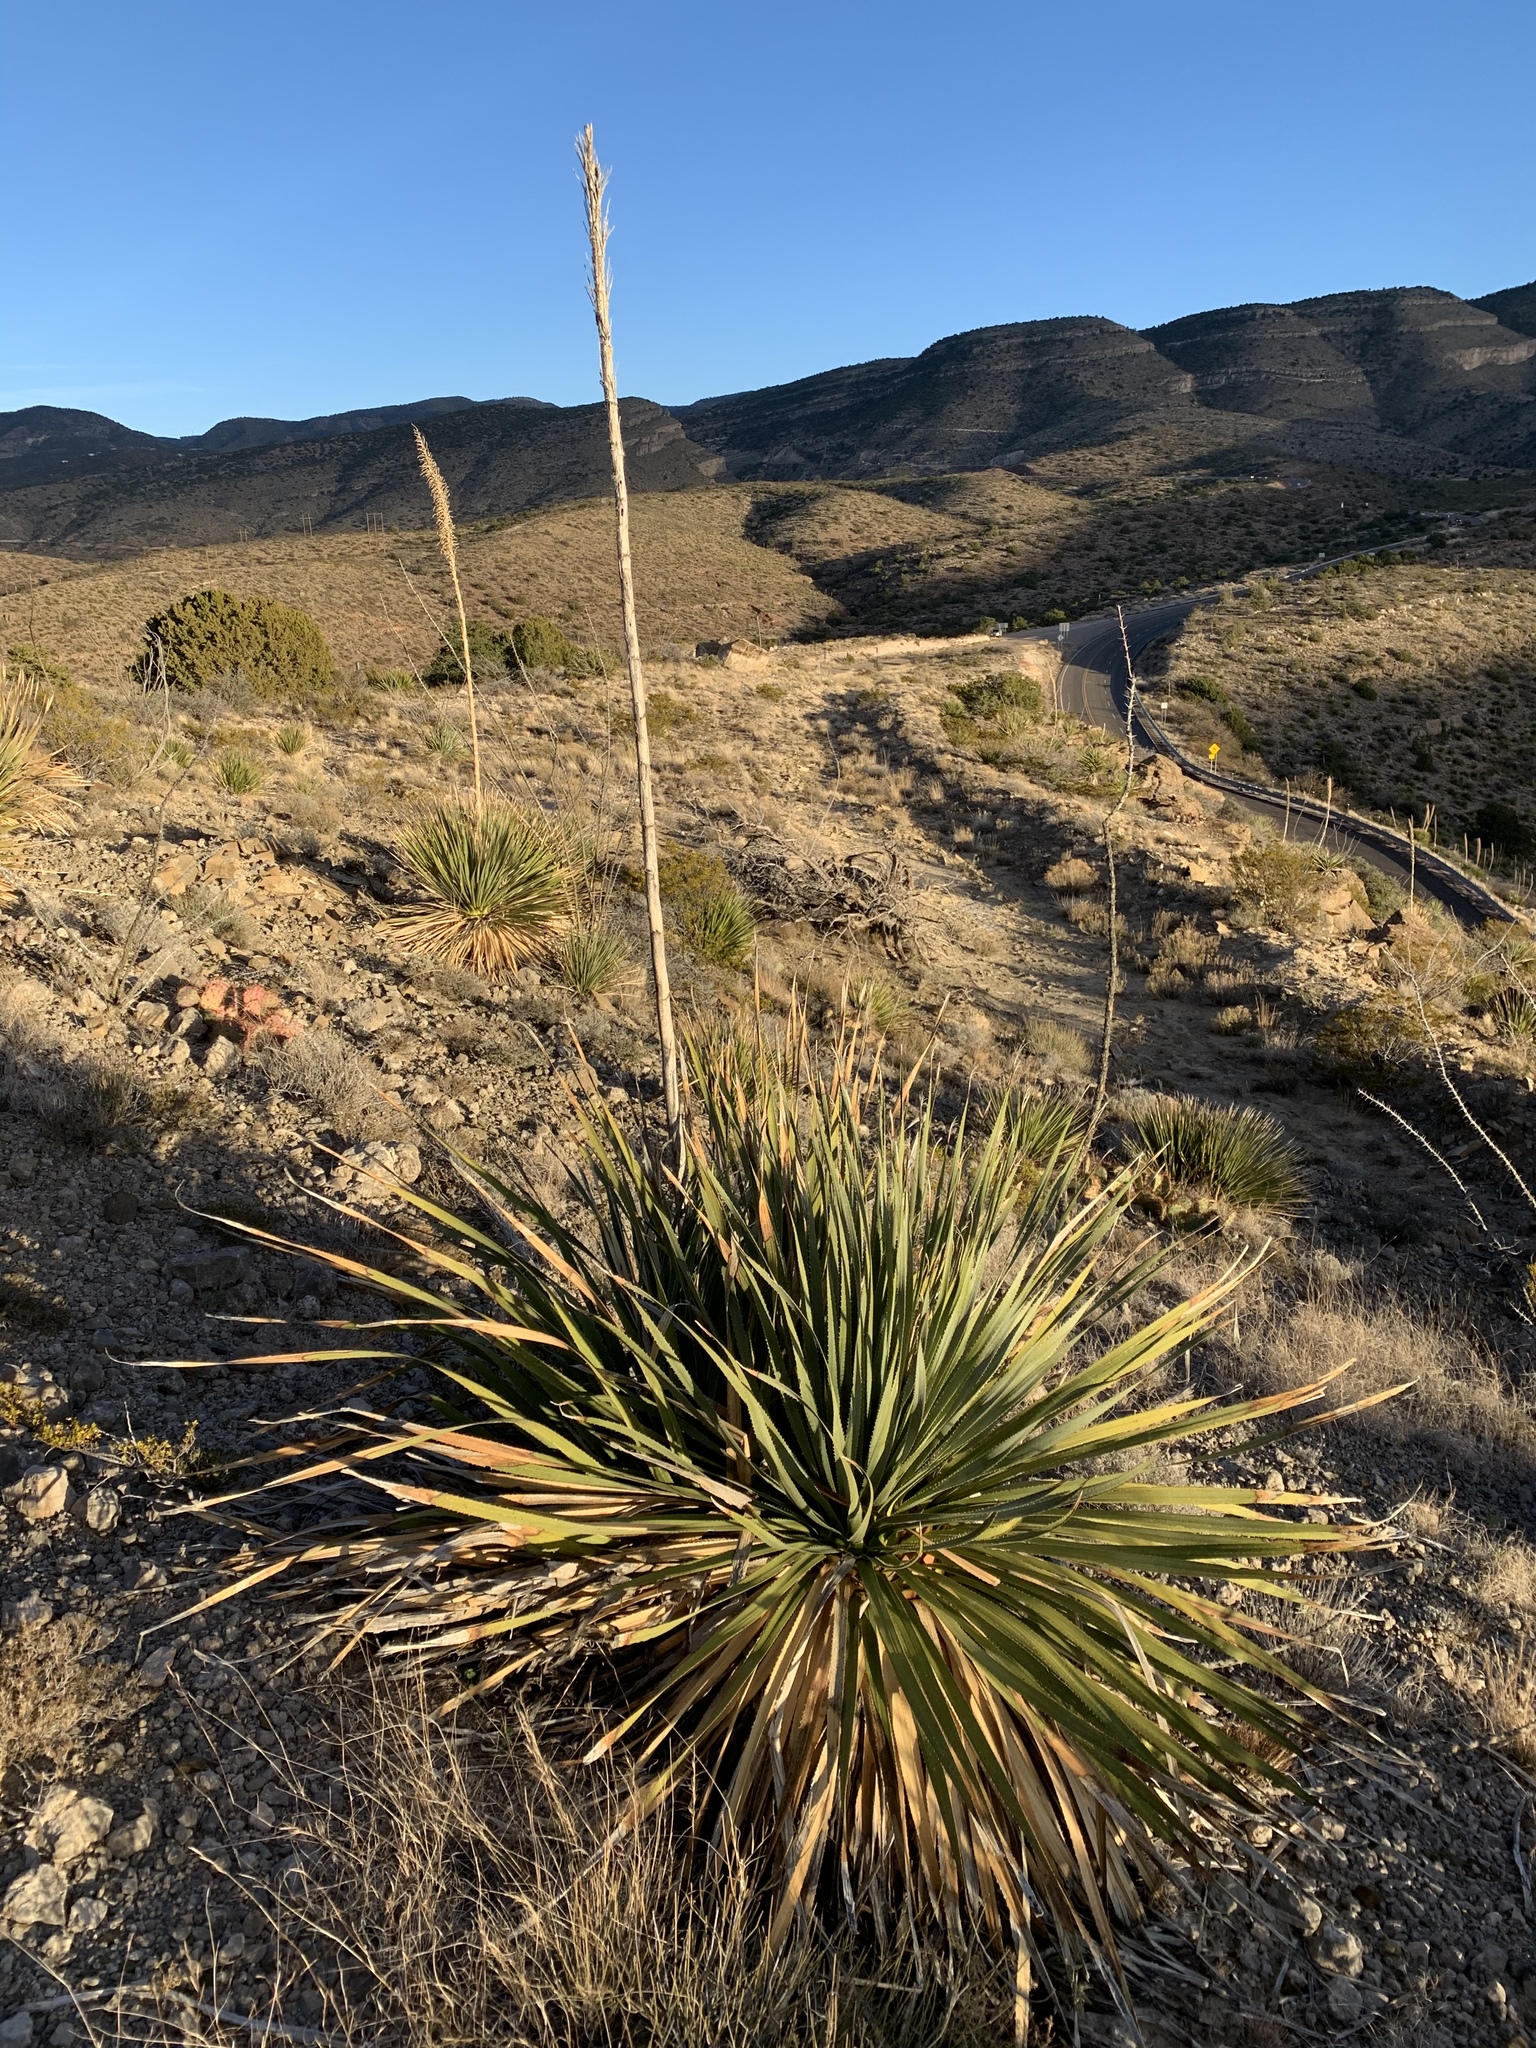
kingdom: Plantae
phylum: Tracheophyta
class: Liliopsida
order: Asparagales
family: Asparagaceae
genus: Dasylirion
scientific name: Dasylirion wheeleri
